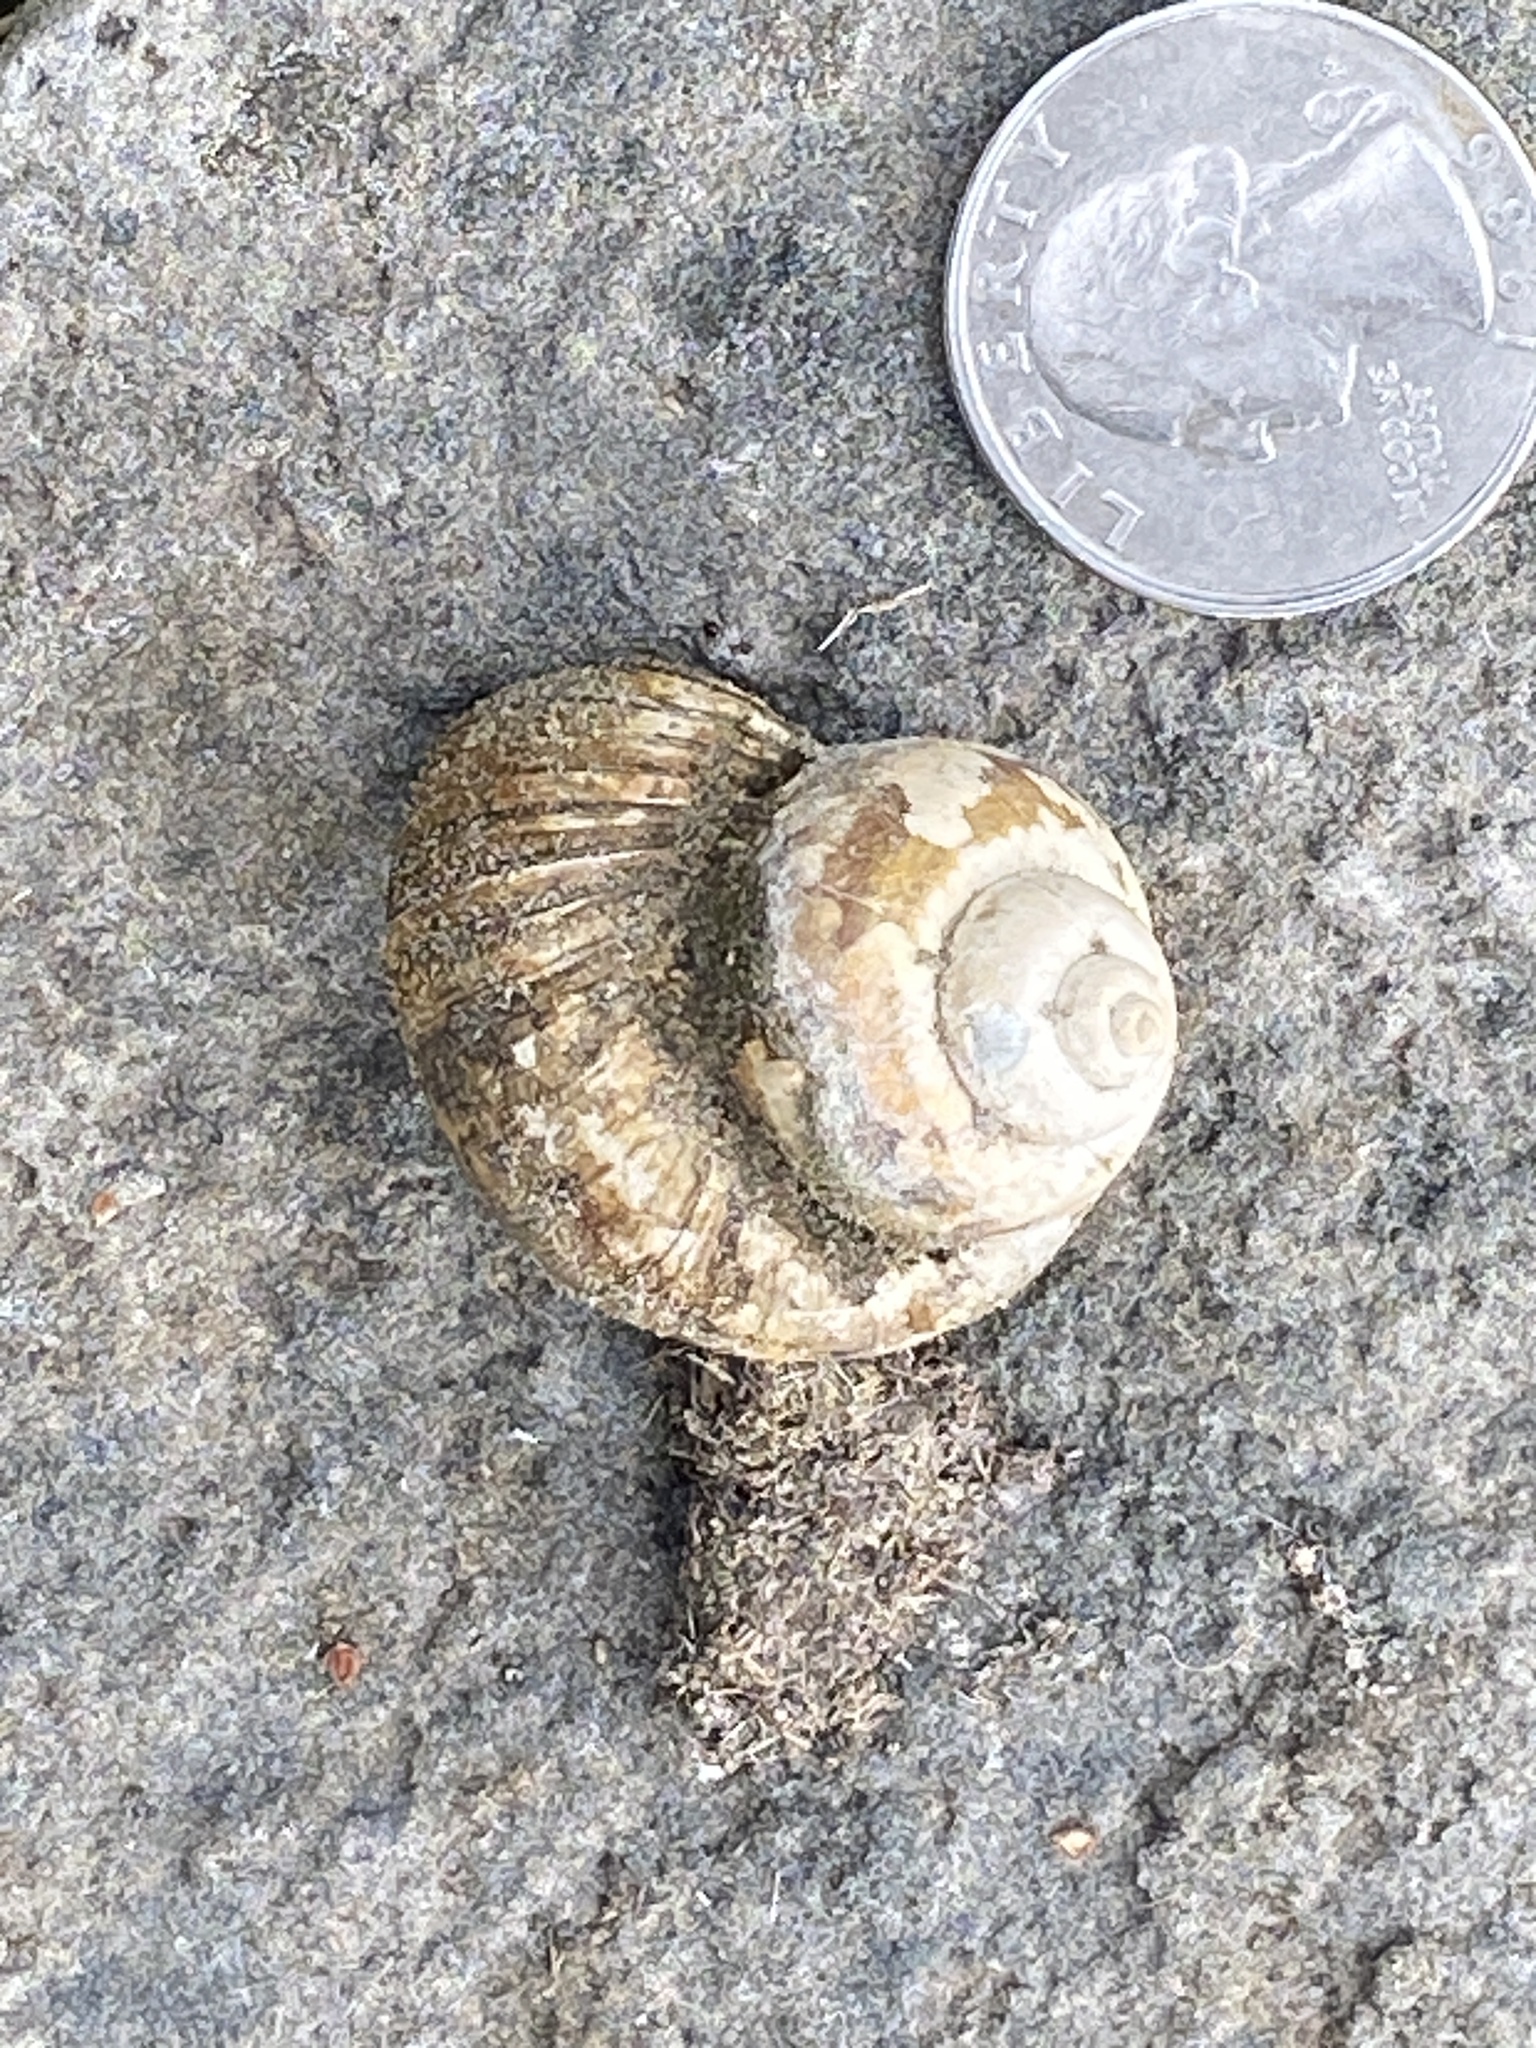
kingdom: Animalia
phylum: Mollusca
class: Gastropoda
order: Architaenioglossa
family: Viviparidae
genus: Cipangopaludina
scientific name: Cipangopaludina chinensis
